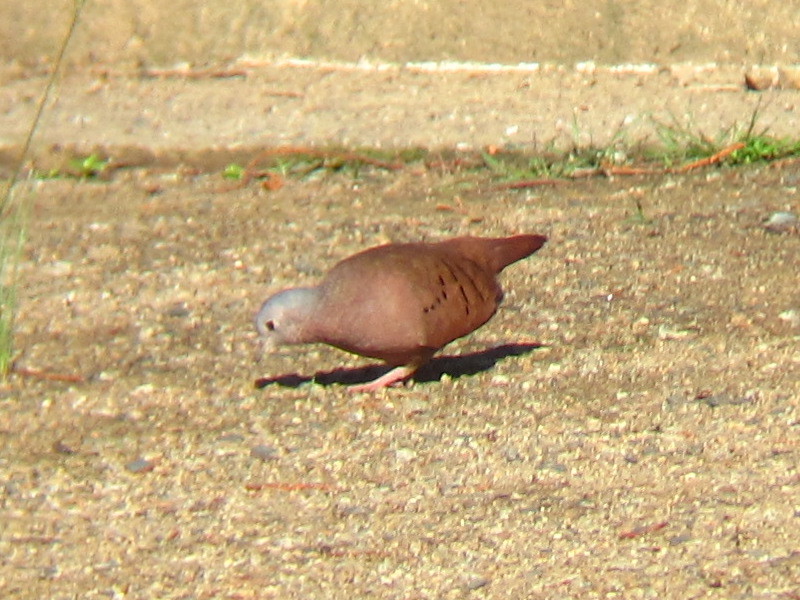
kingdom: Animalia
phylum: Chordata
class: Aves
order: Columbiformes
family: Columbidae
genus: Columbina
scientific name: Columbina talpacoti
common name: Ruddy ground dove
